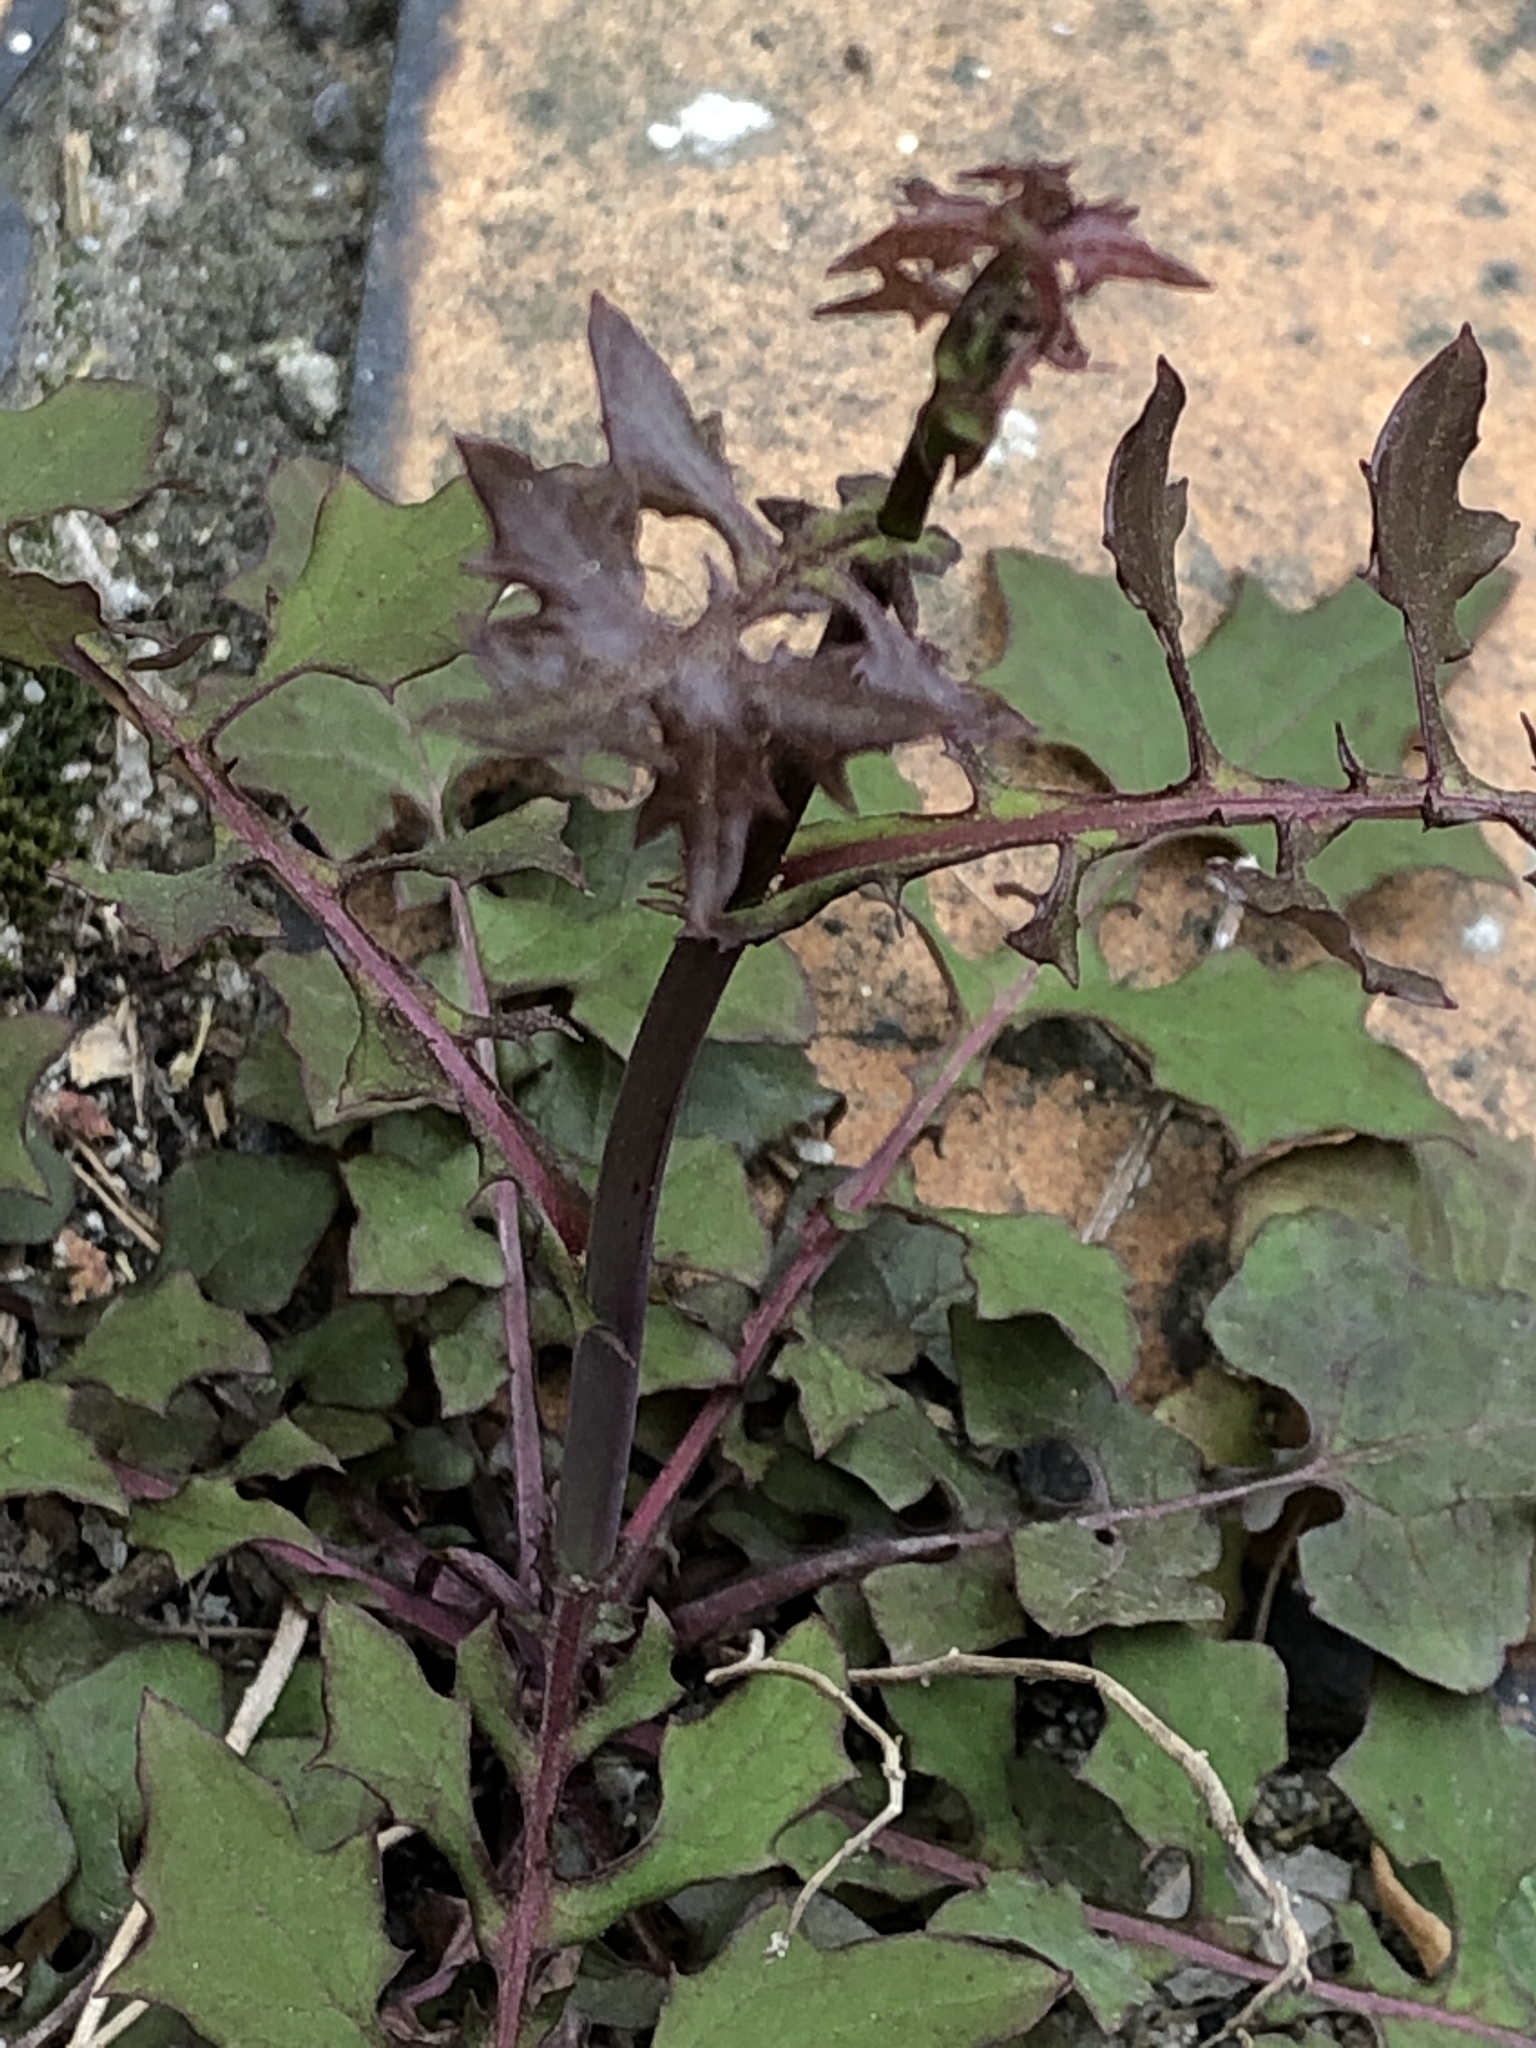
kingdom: Plantae
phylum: Tracheophyta
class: Magnoliopsida
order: Asterales
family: Asteraceae
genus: Mycelis
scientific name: Mycelis muralis
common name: Wall lettuce
